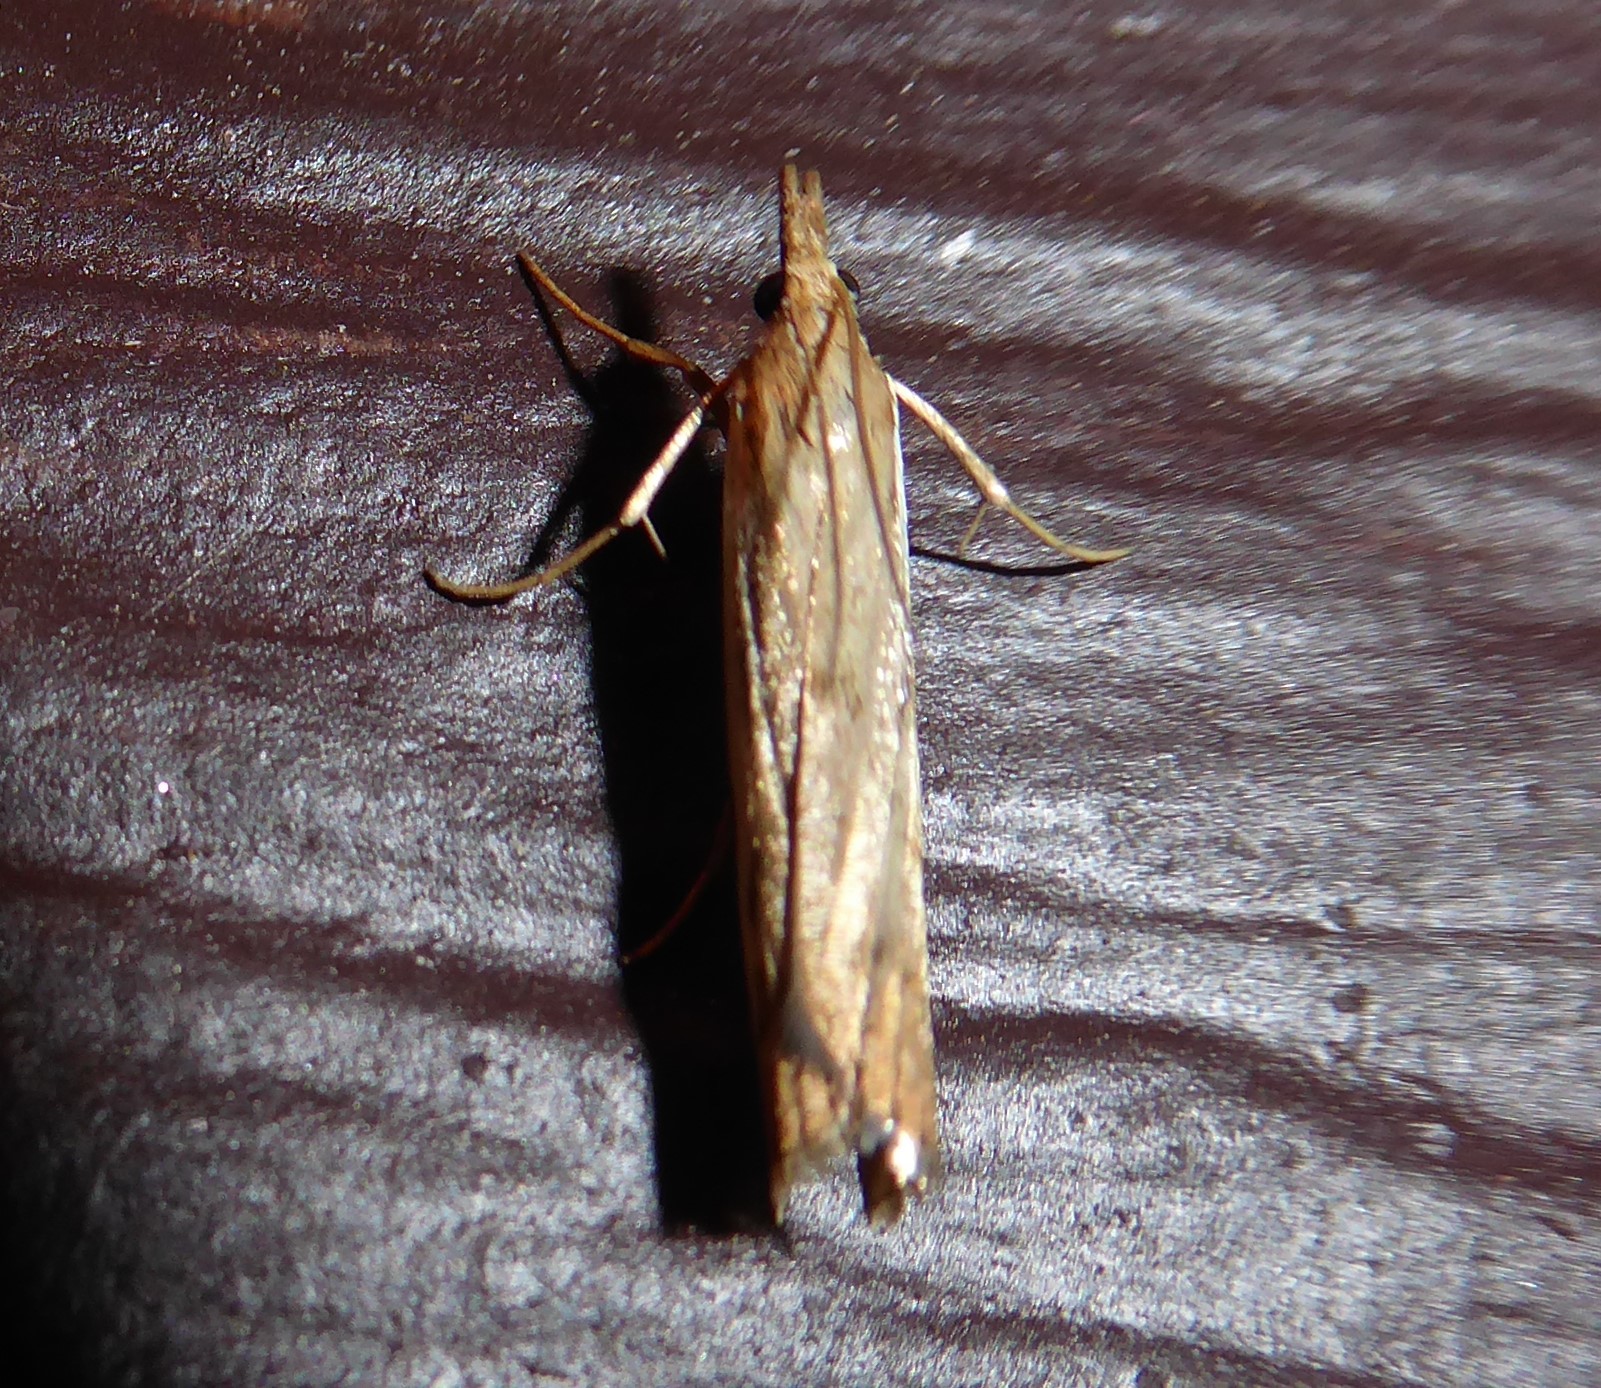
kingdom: Animalia
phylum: Arthropoda
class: Insecta
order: Lepidoptera
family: Crambidae
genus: Orocrambus
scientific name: Orocrambus flexuosellus
